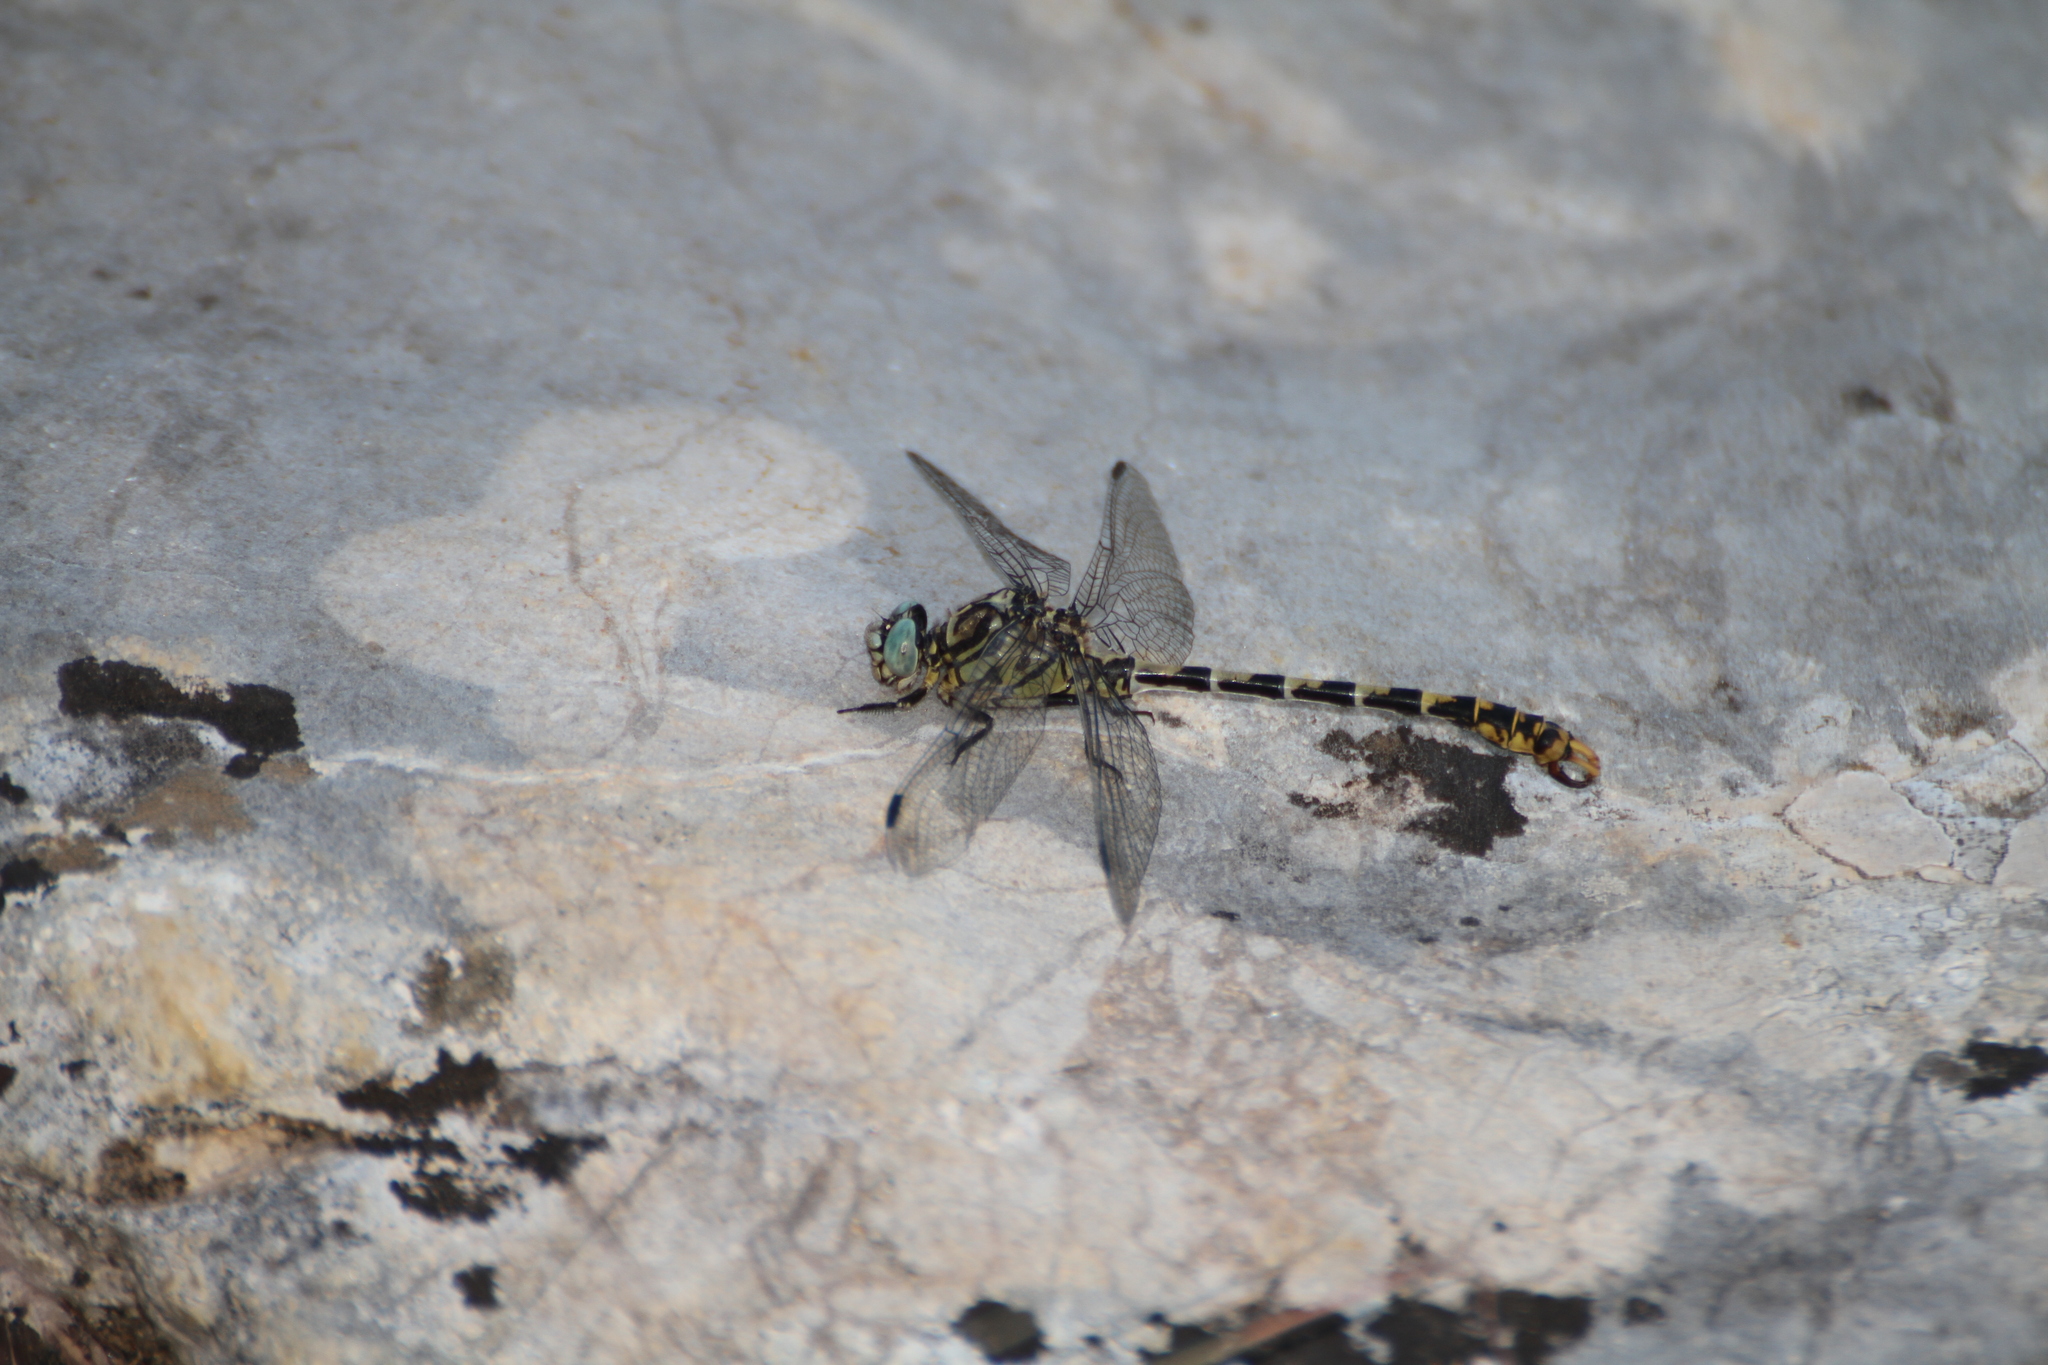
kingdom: Animalia
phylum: Arthropoda
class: Insecta
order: Odonata
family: Gomphidae
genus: Onychogomphus
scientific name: Onychogomphus forcipatus
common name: Small pincertail
